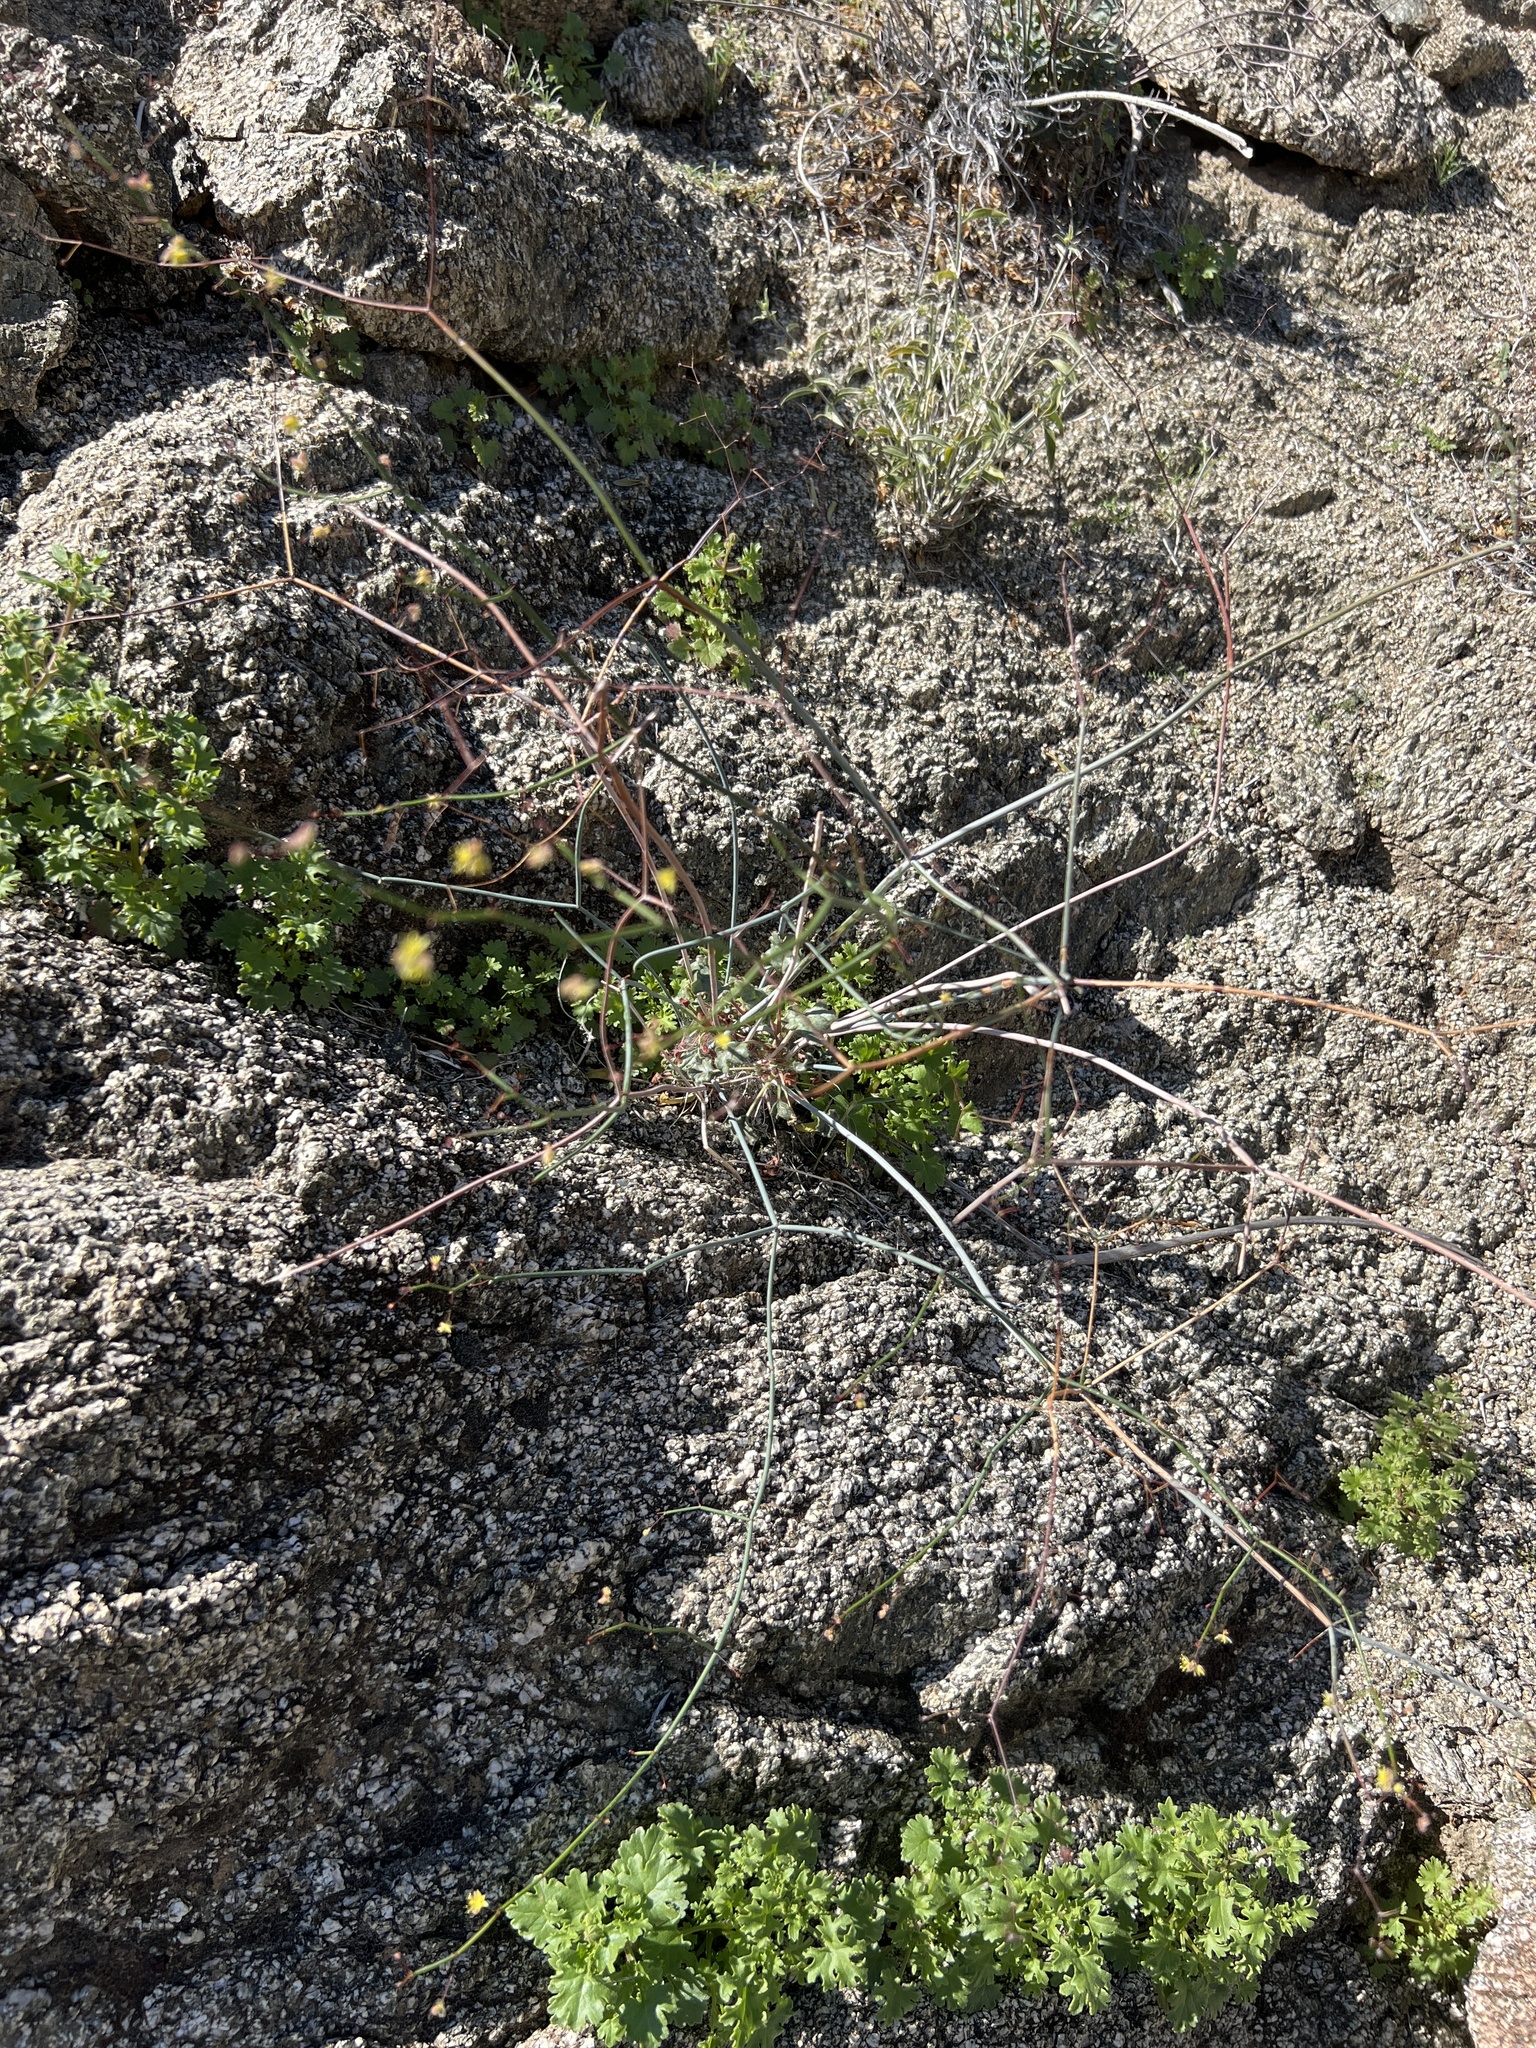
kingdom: Plantae
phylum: Tracheophyta
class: Magnoliopsida
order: Caryophyllales
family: Polygonaceae
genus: Eriogonum
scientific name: Eriogonum inflatum
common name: Desert trumpet
